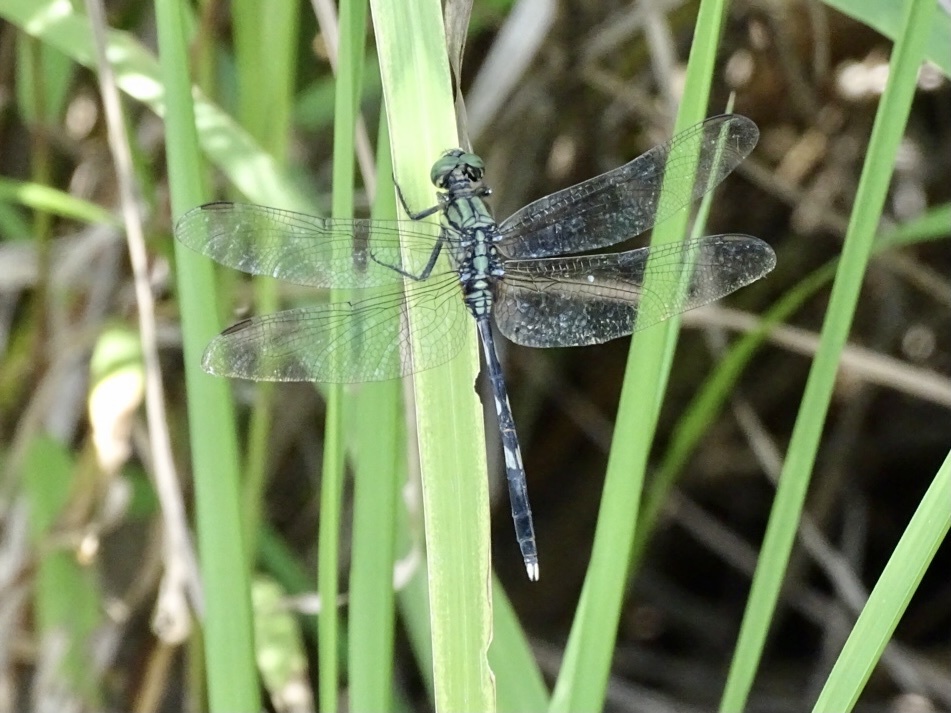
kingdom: Animalia
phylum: Arthropoda
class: Insecta
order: Odonata
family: Libellulidae
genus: Orthetrum
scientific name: Orthetrum sabina
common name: Slender skimmer
